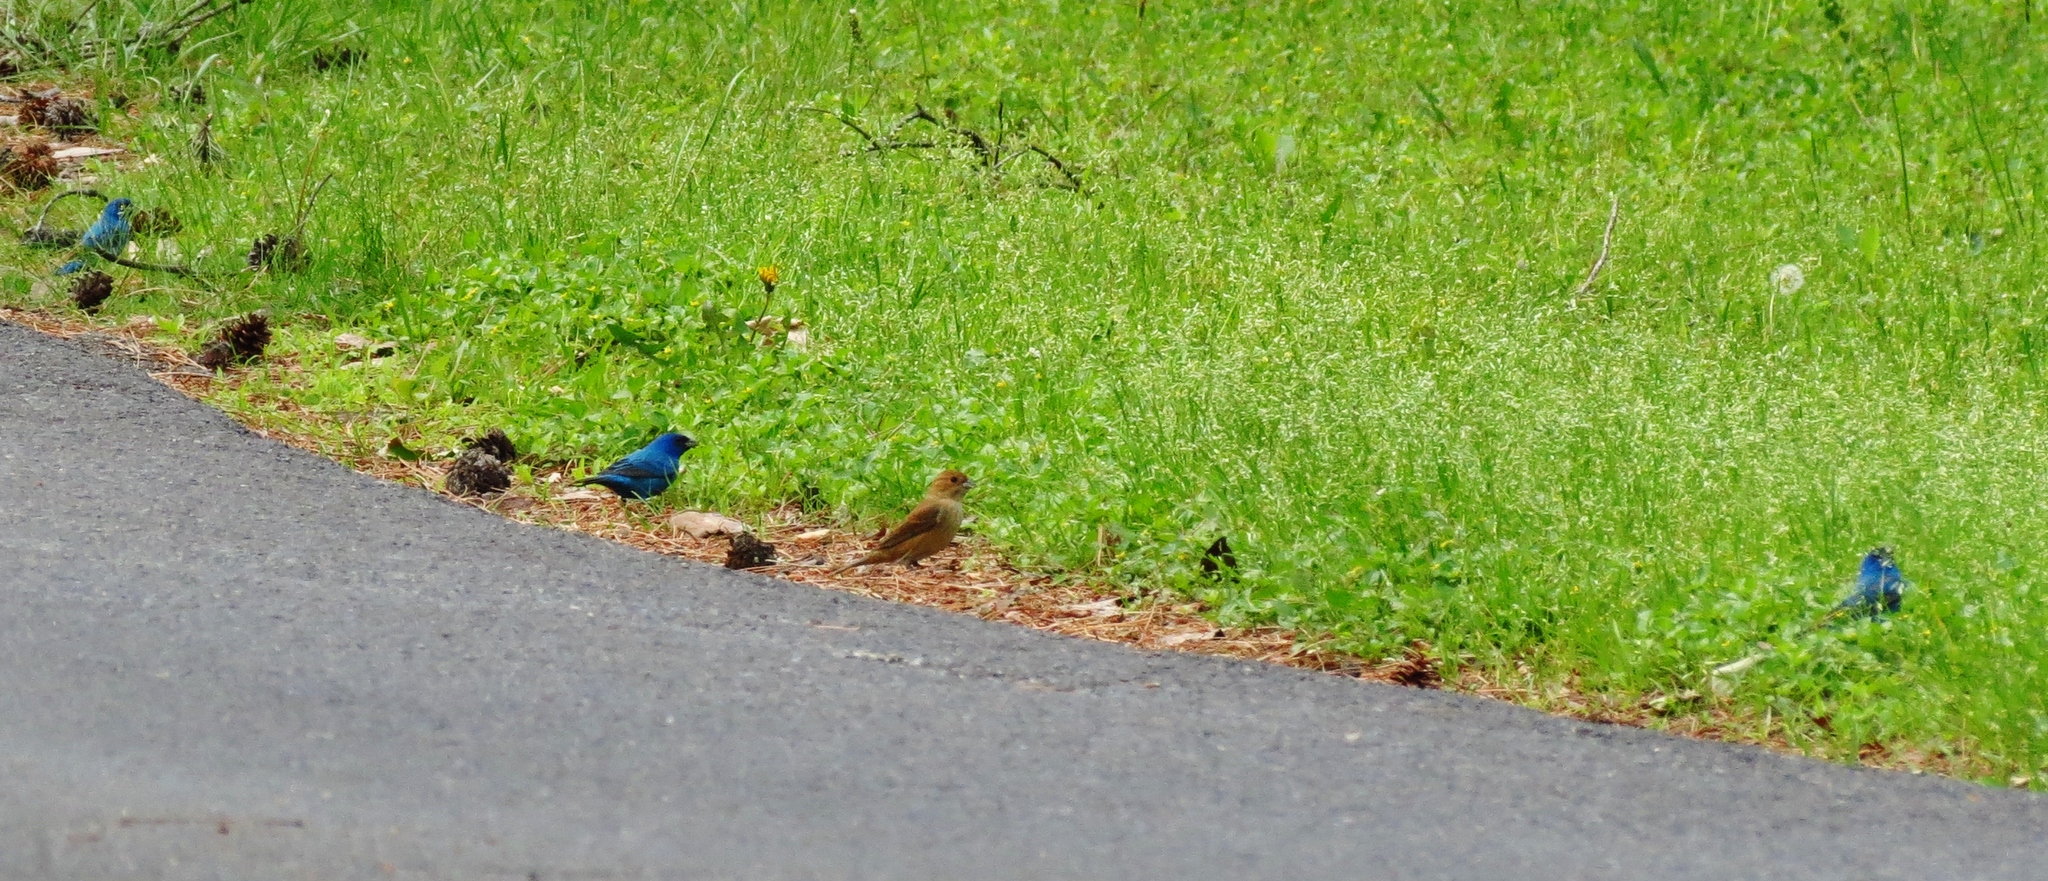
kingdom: Animalia
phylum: Chordata
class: Aves
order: Passeriformes
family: Cardinalidae
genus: Passerina
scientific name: Passerina cyanea
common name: Indigo bunting
